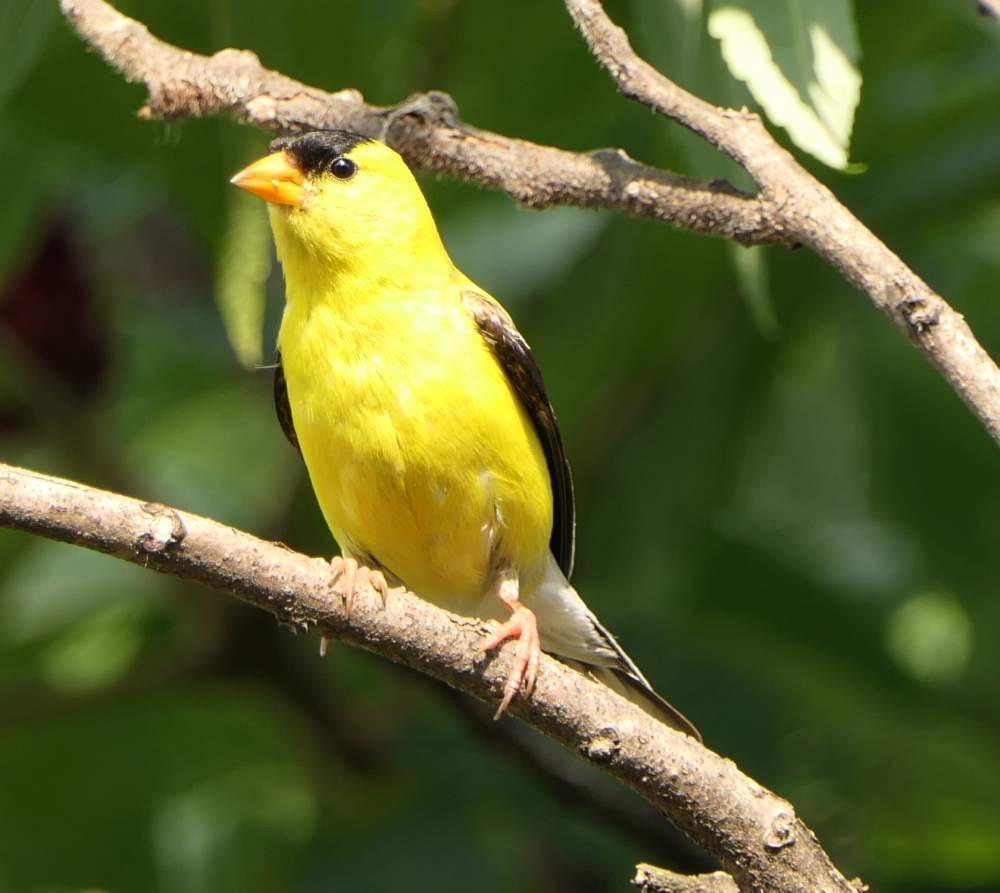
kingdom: Animalia
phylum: Chordata
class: Aves
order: Passeriformes
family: Fringillidae
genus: Spinus
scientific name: Spinus tristis
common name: American goldfinch
